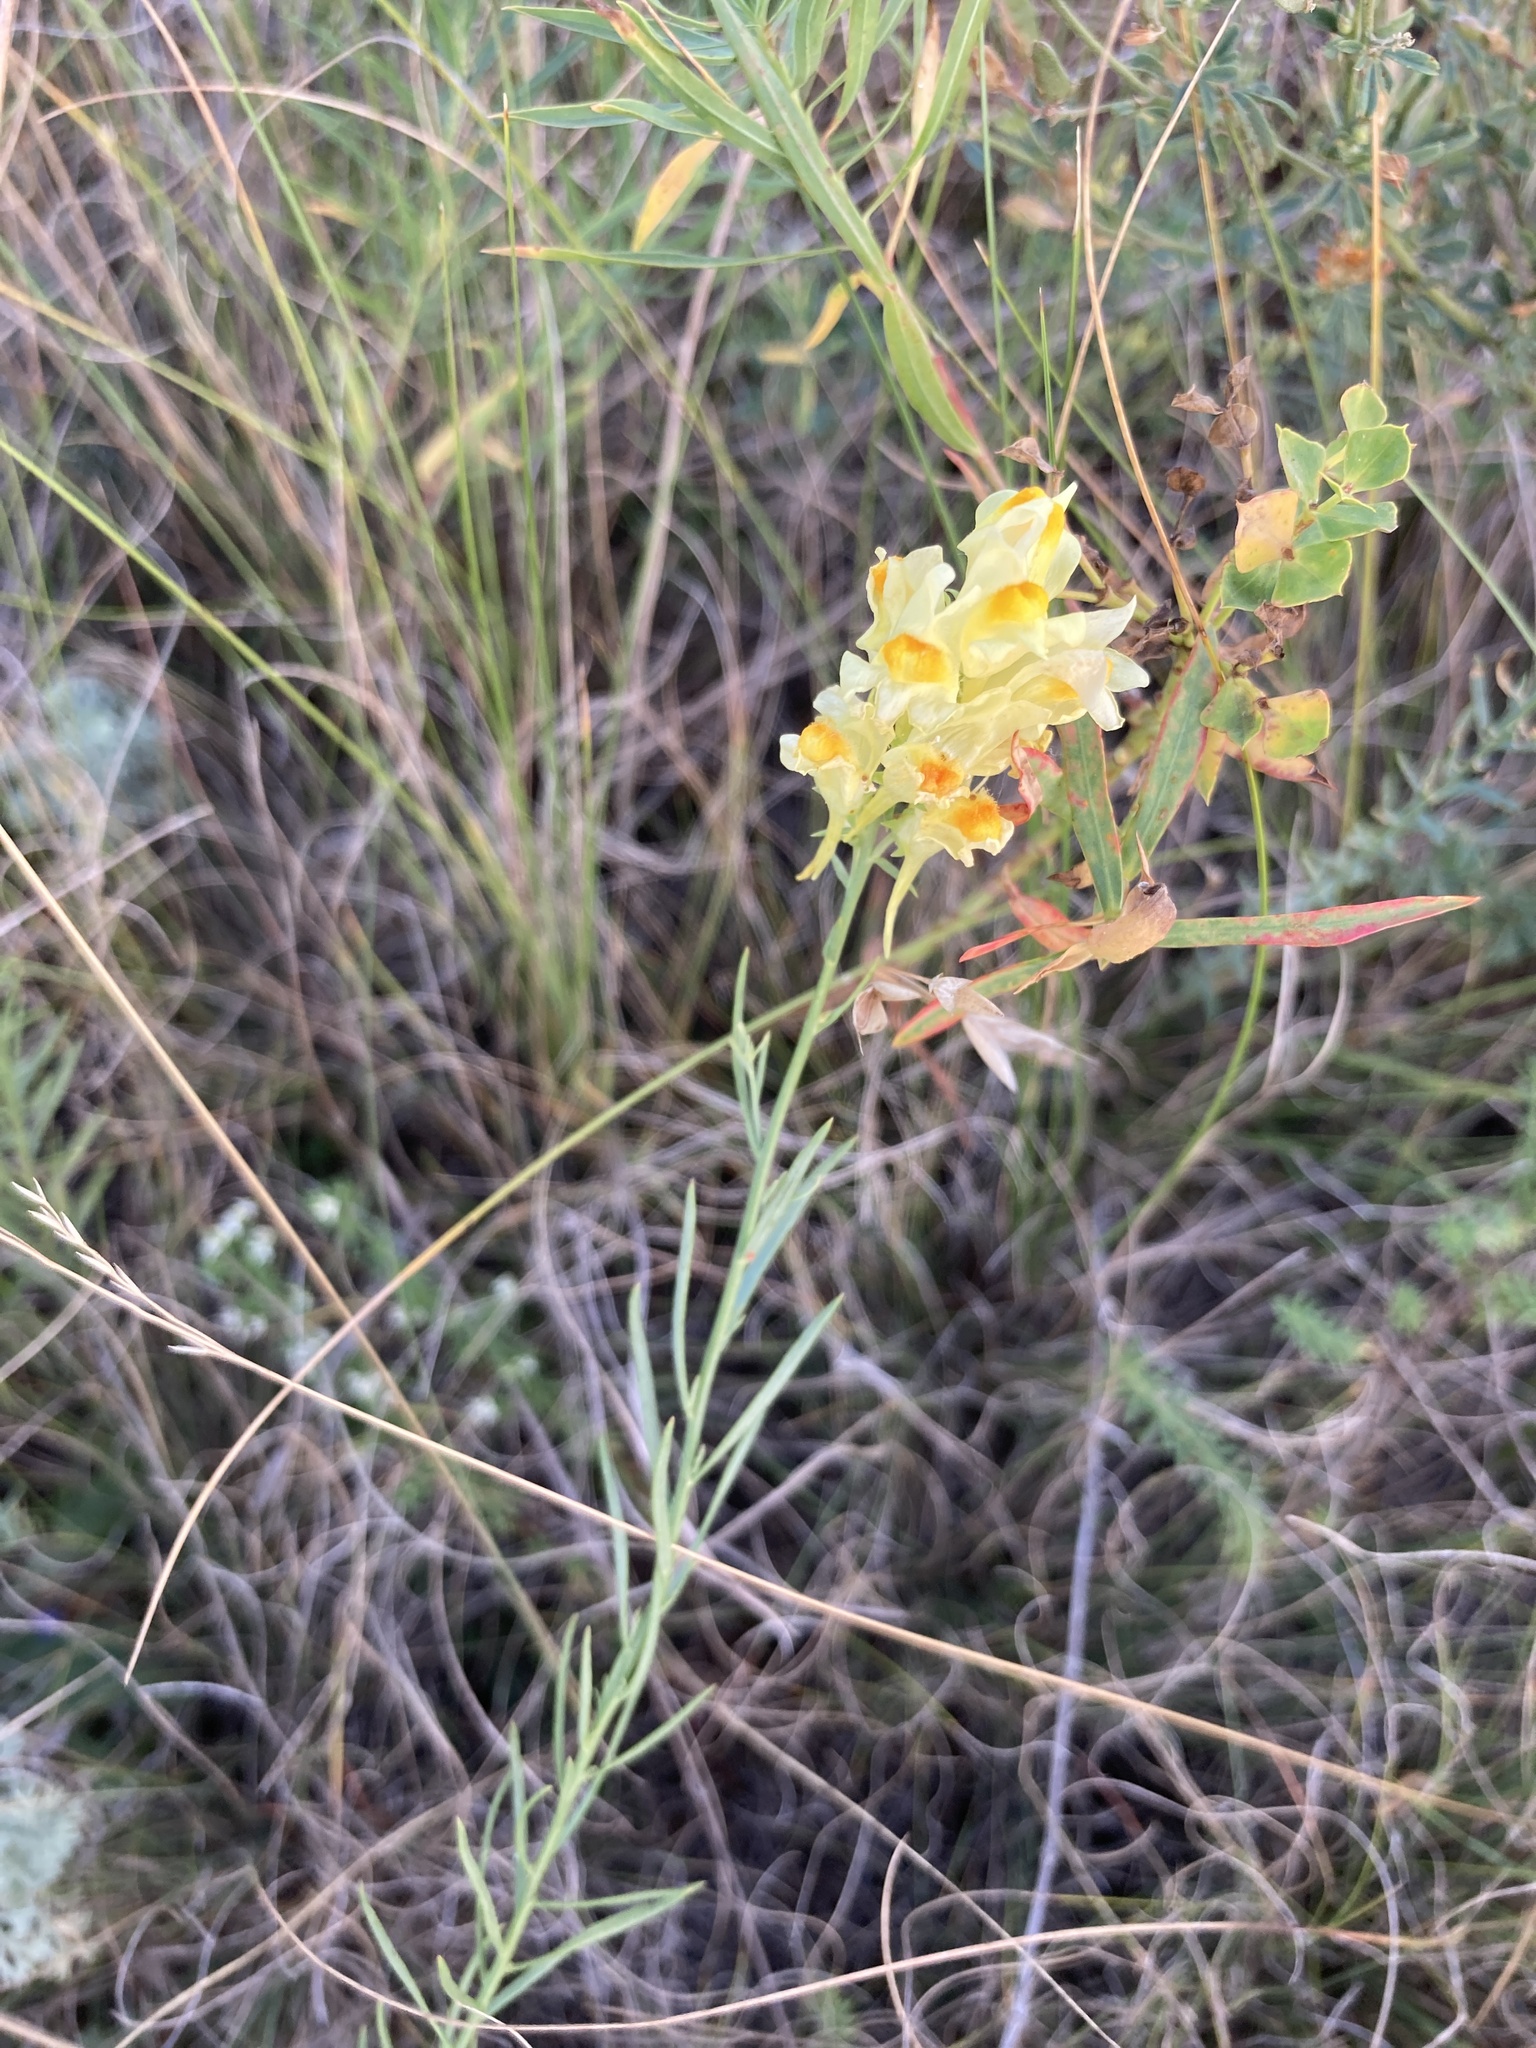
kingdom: Plantae
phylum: Tracheophyta
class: Magnoliopsida
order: Lamiales
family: Plantaginaceae
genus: Linaria
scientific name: Linaria vulgaris
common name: Butter and eggs
